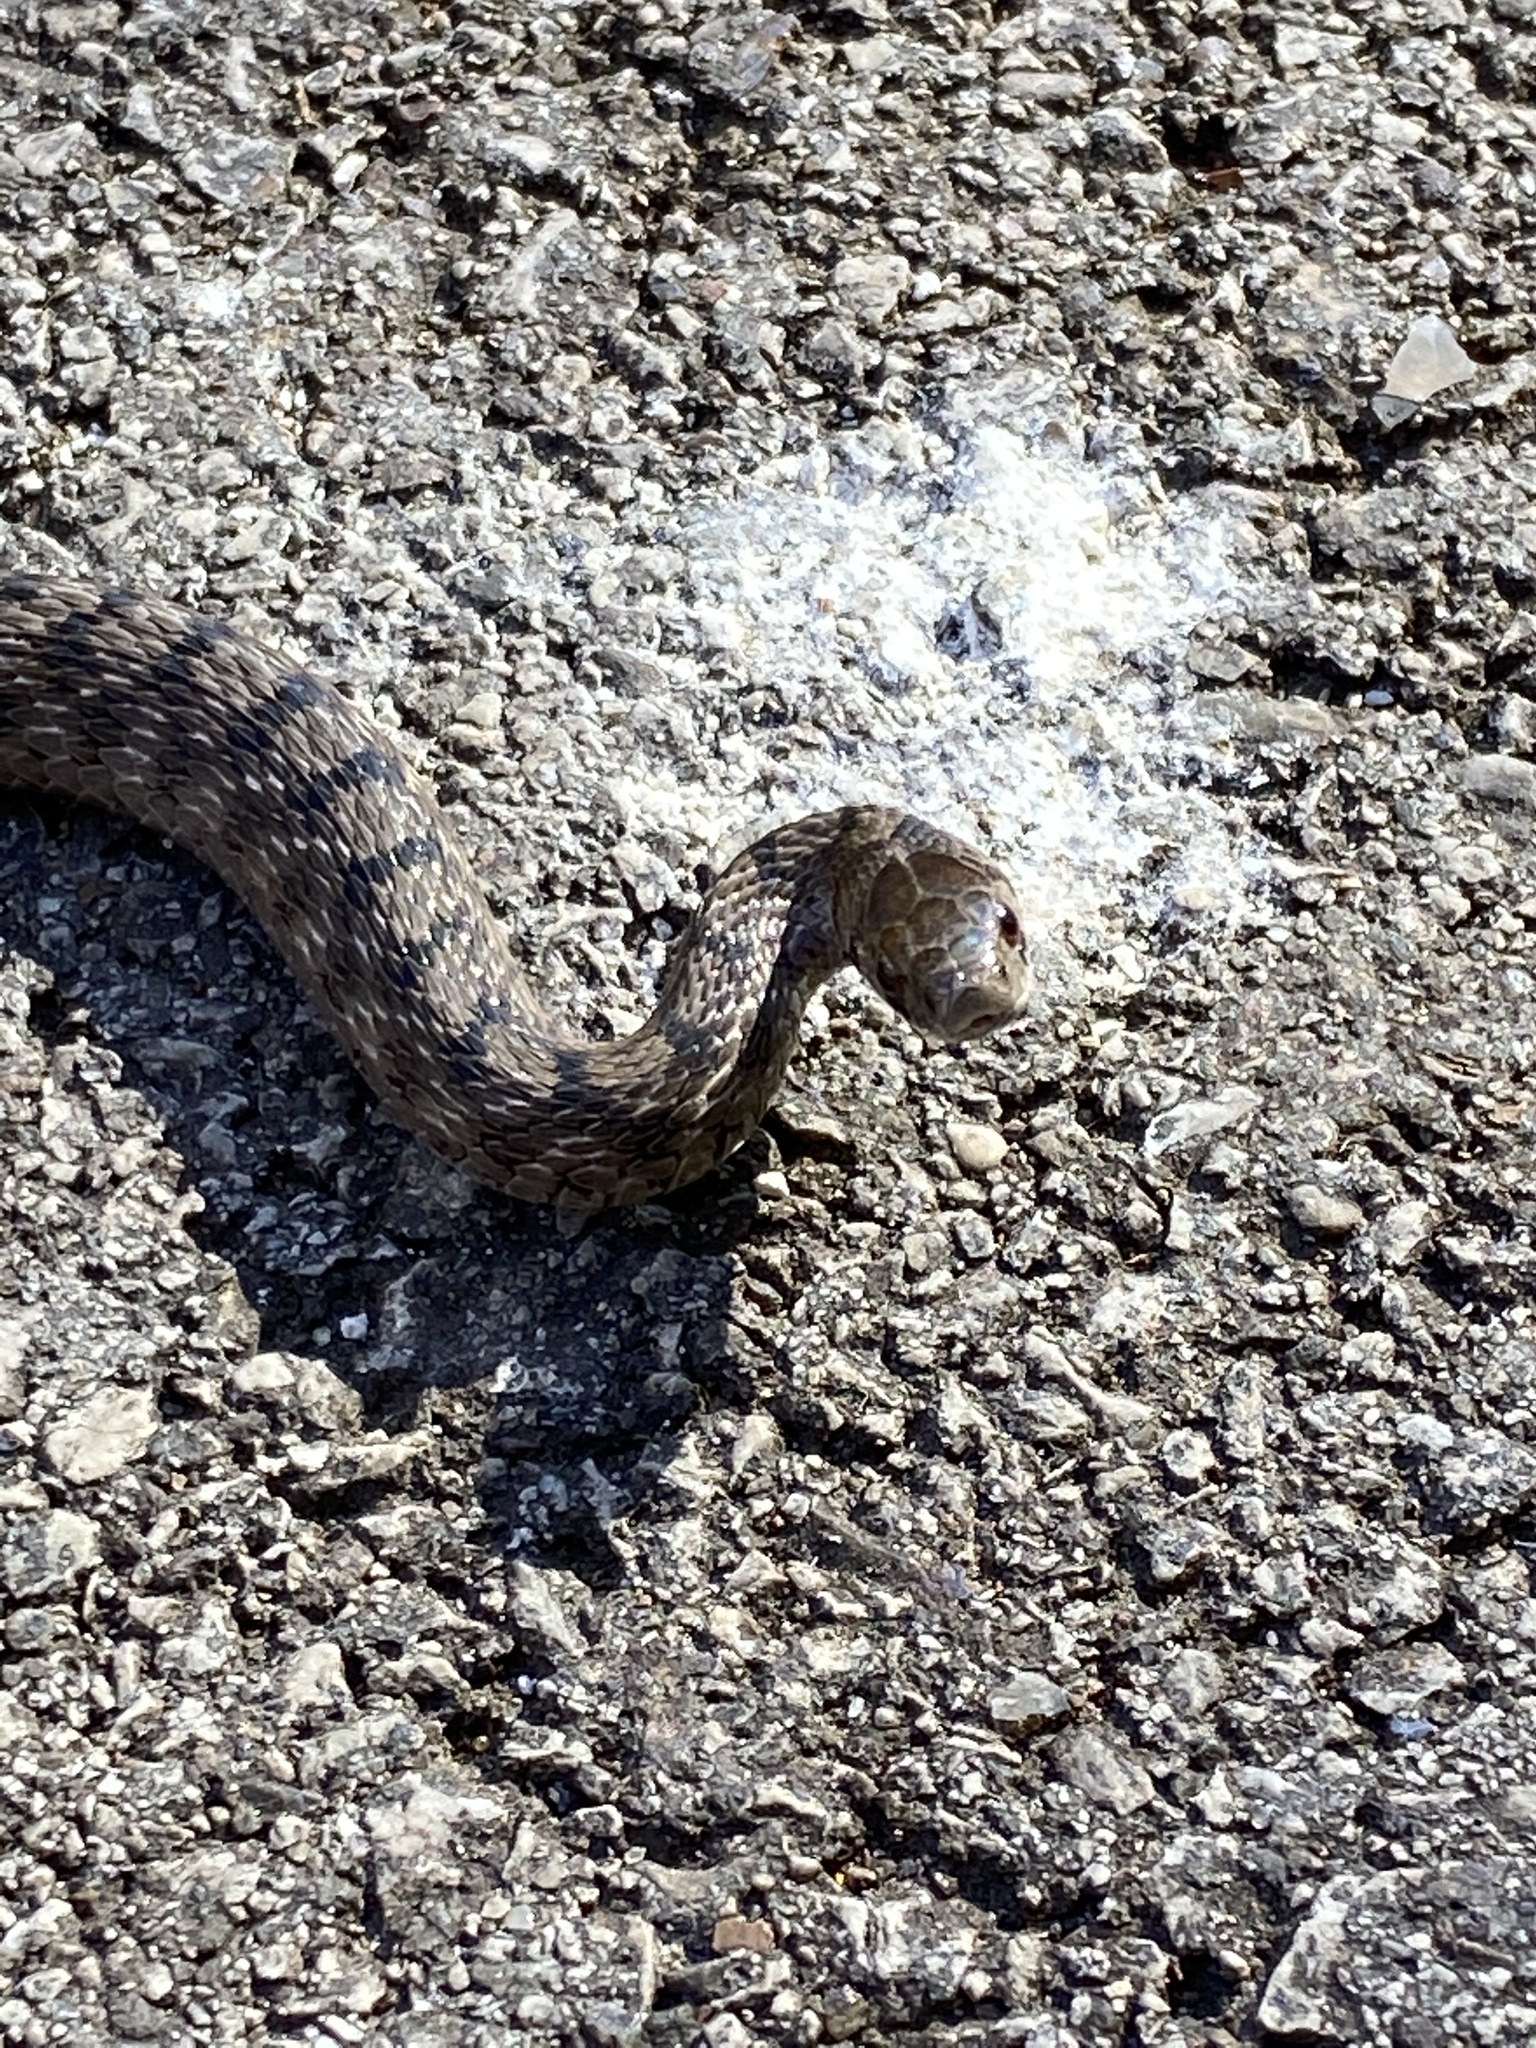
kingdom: Animalia
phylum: Chordata
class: Squamata
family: Colubridae
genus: Storeria
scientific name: Storeria dekayi
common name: (dekay’s) brown snake
